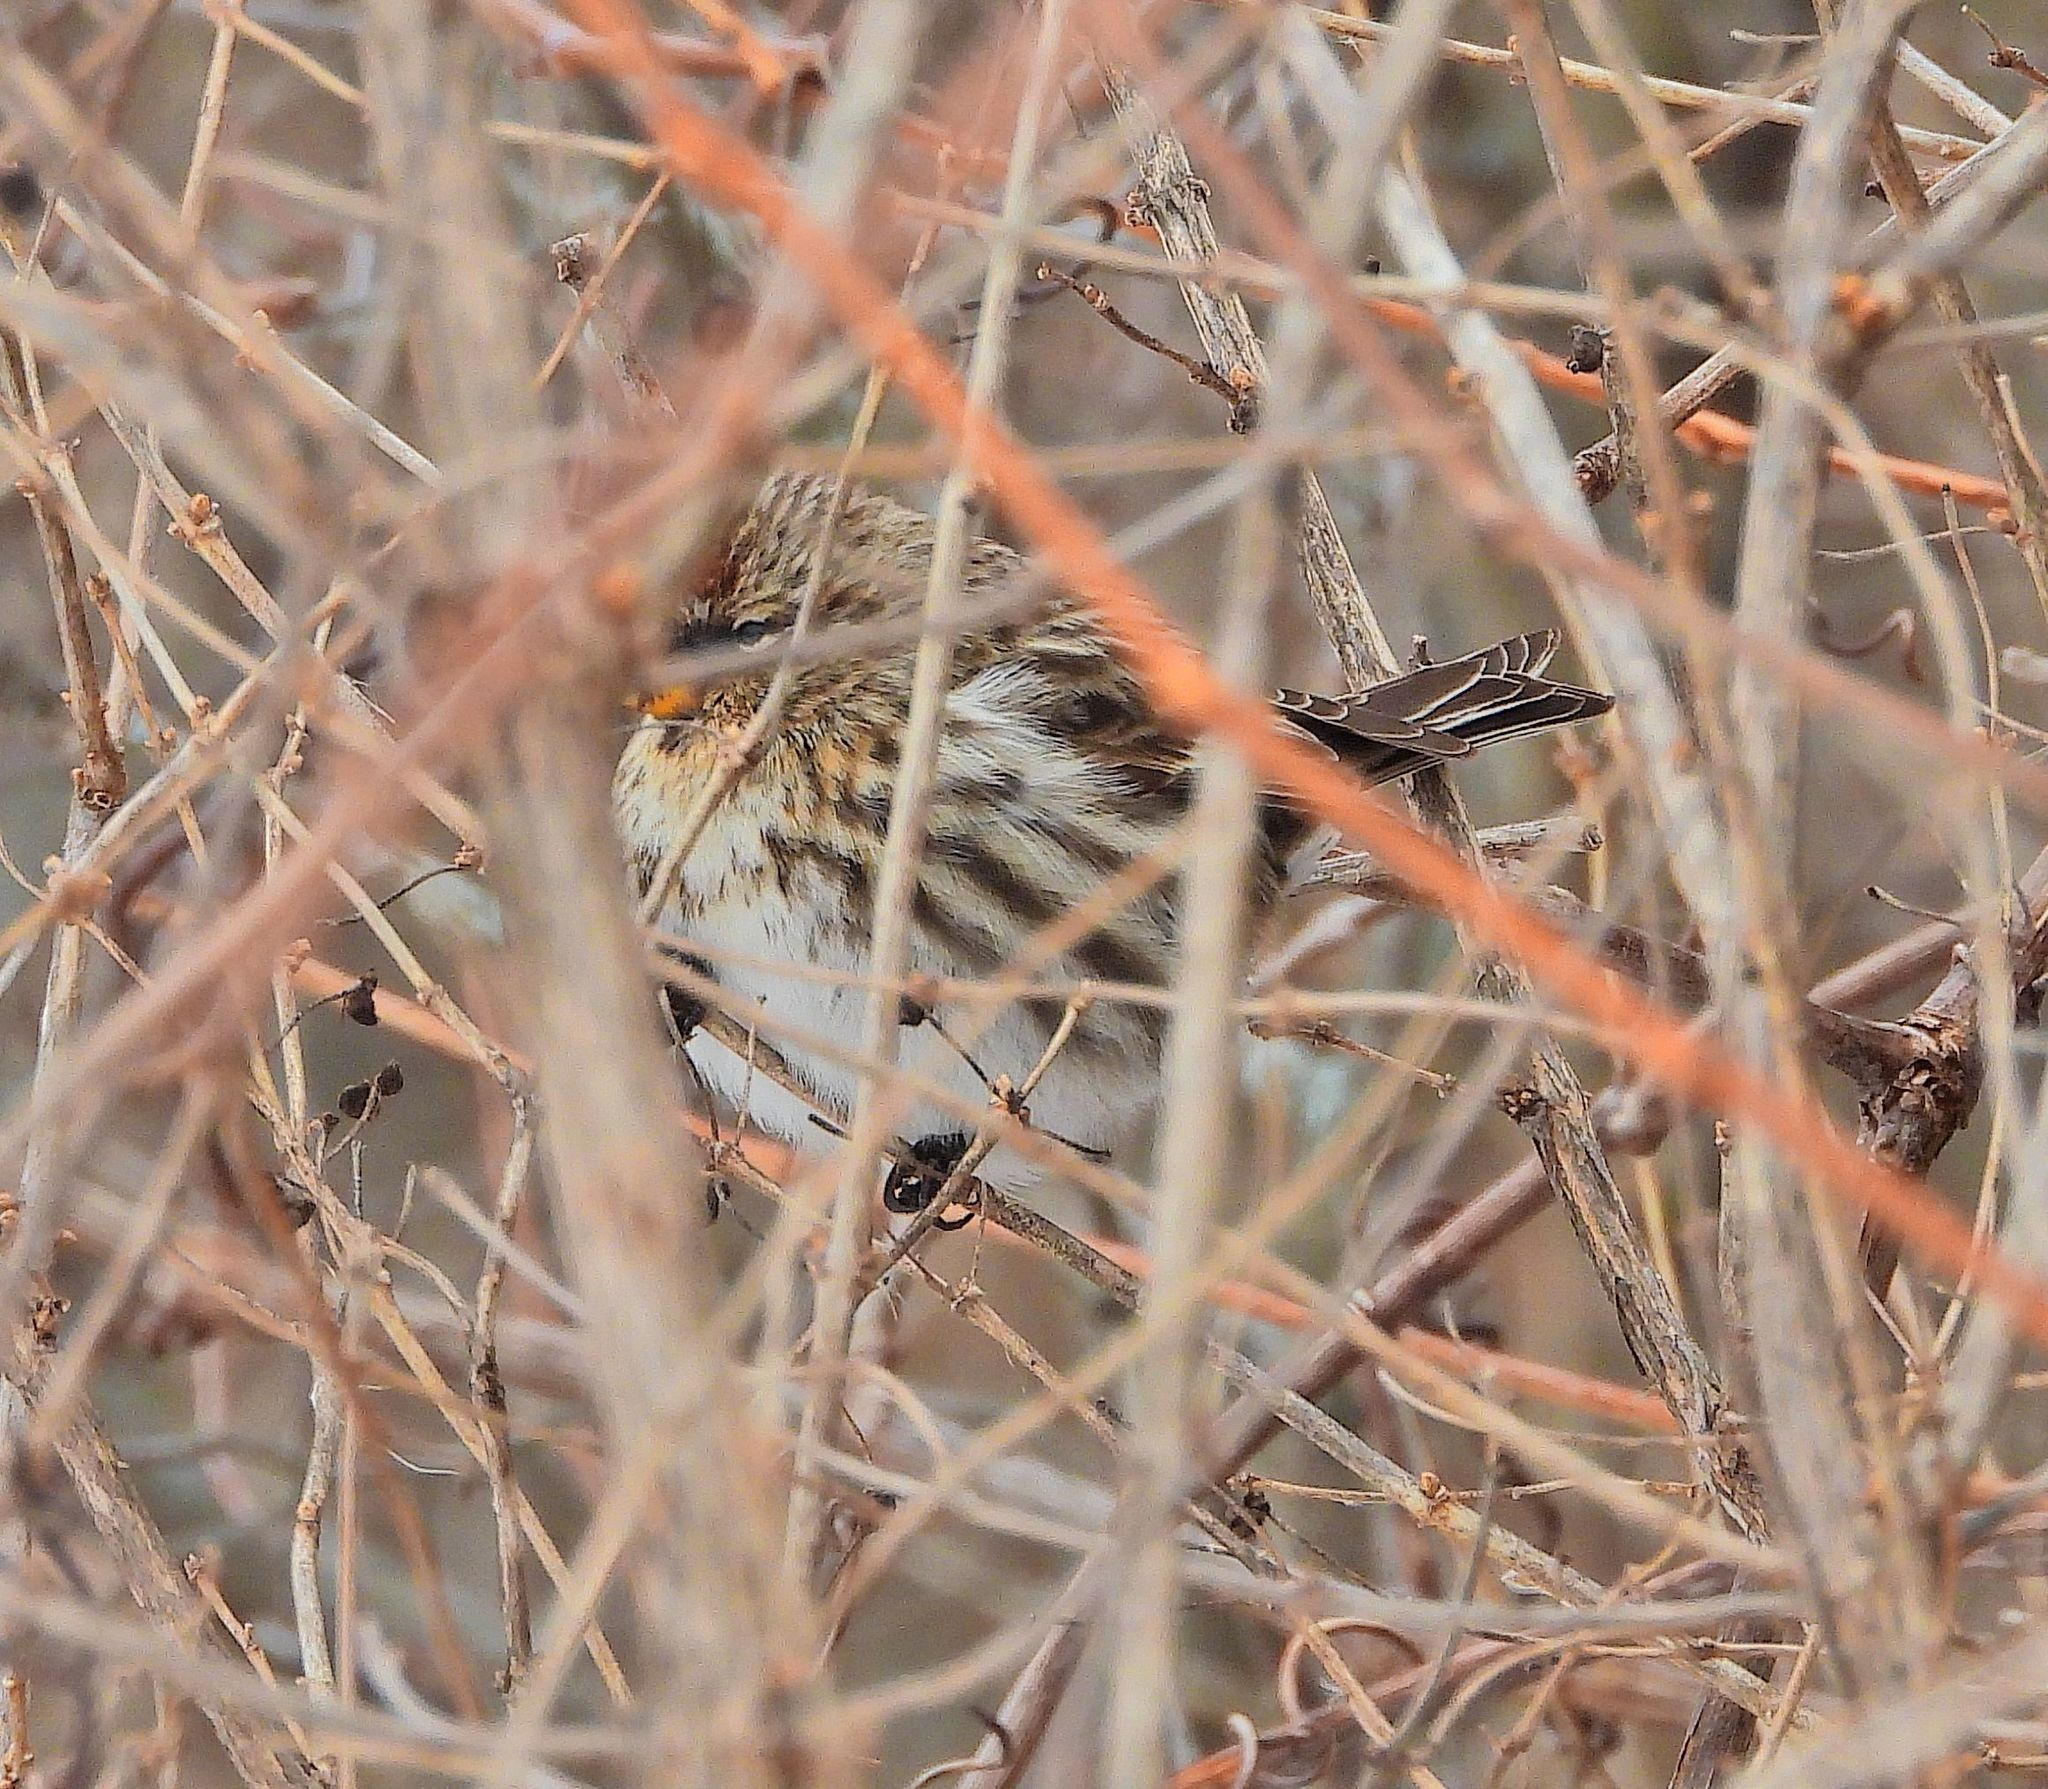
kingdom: Animalia
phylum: Chordata
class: Aves
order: Passeriformes
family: Fringillidae
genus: Acanthis
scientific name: Acanthis flammea
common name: Common redpoll
